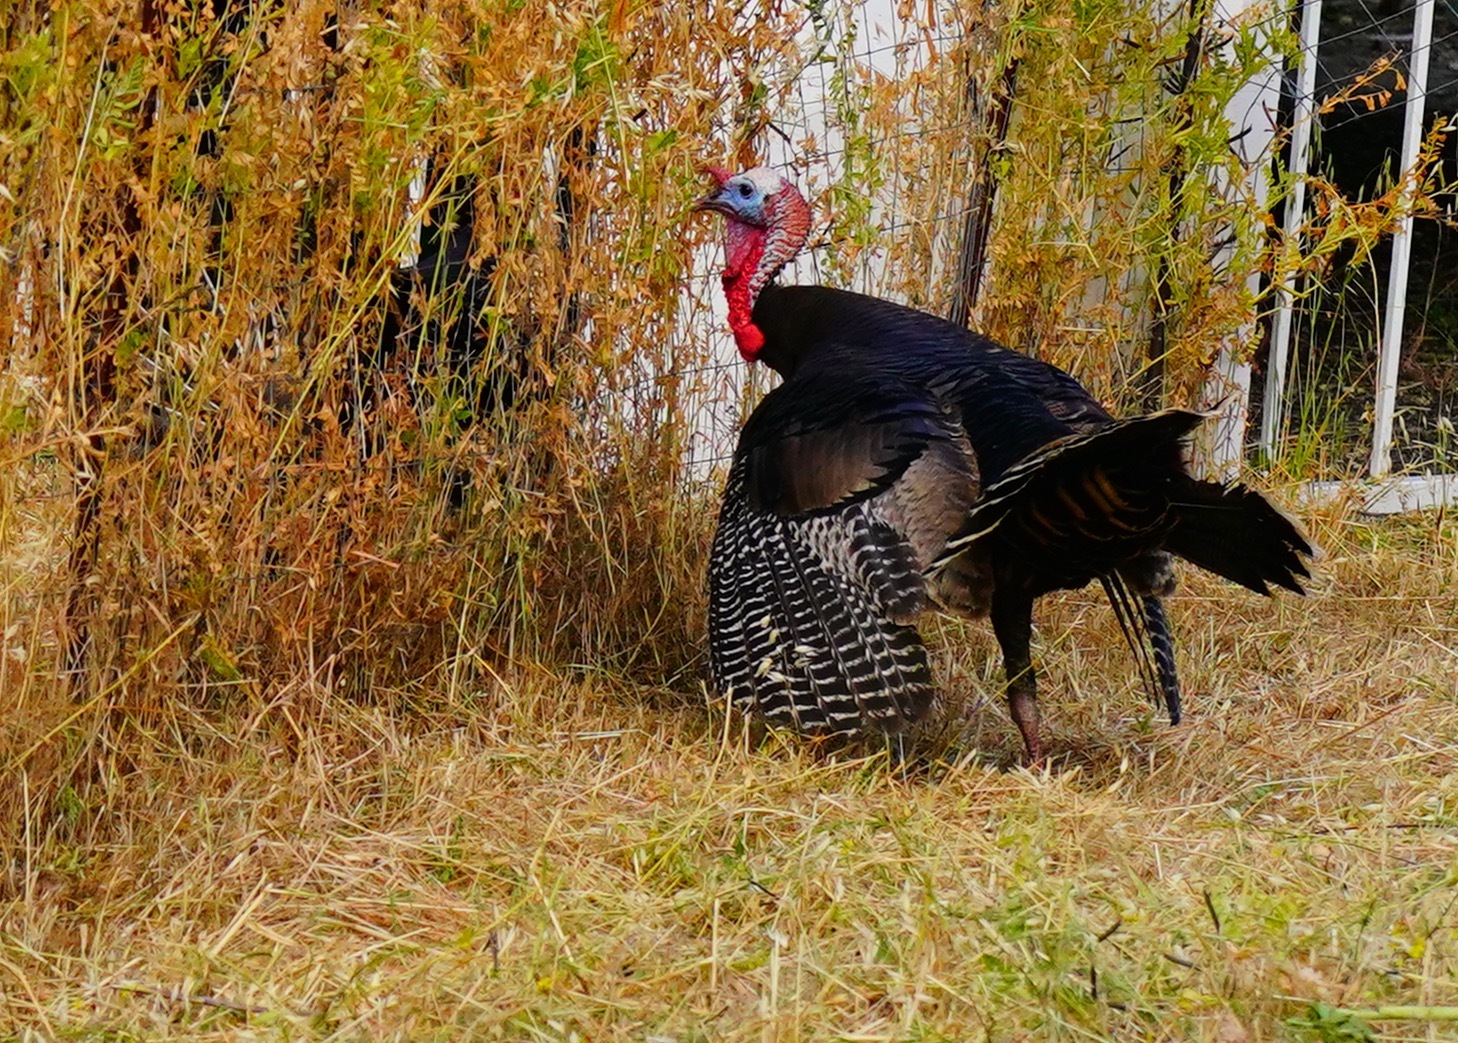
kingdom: Animalia
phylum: Chordata
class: Aves
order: Galliformes
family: Phasianidae
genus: Meleagris
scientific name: Meleagris gallopavo
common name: Wild turkey
